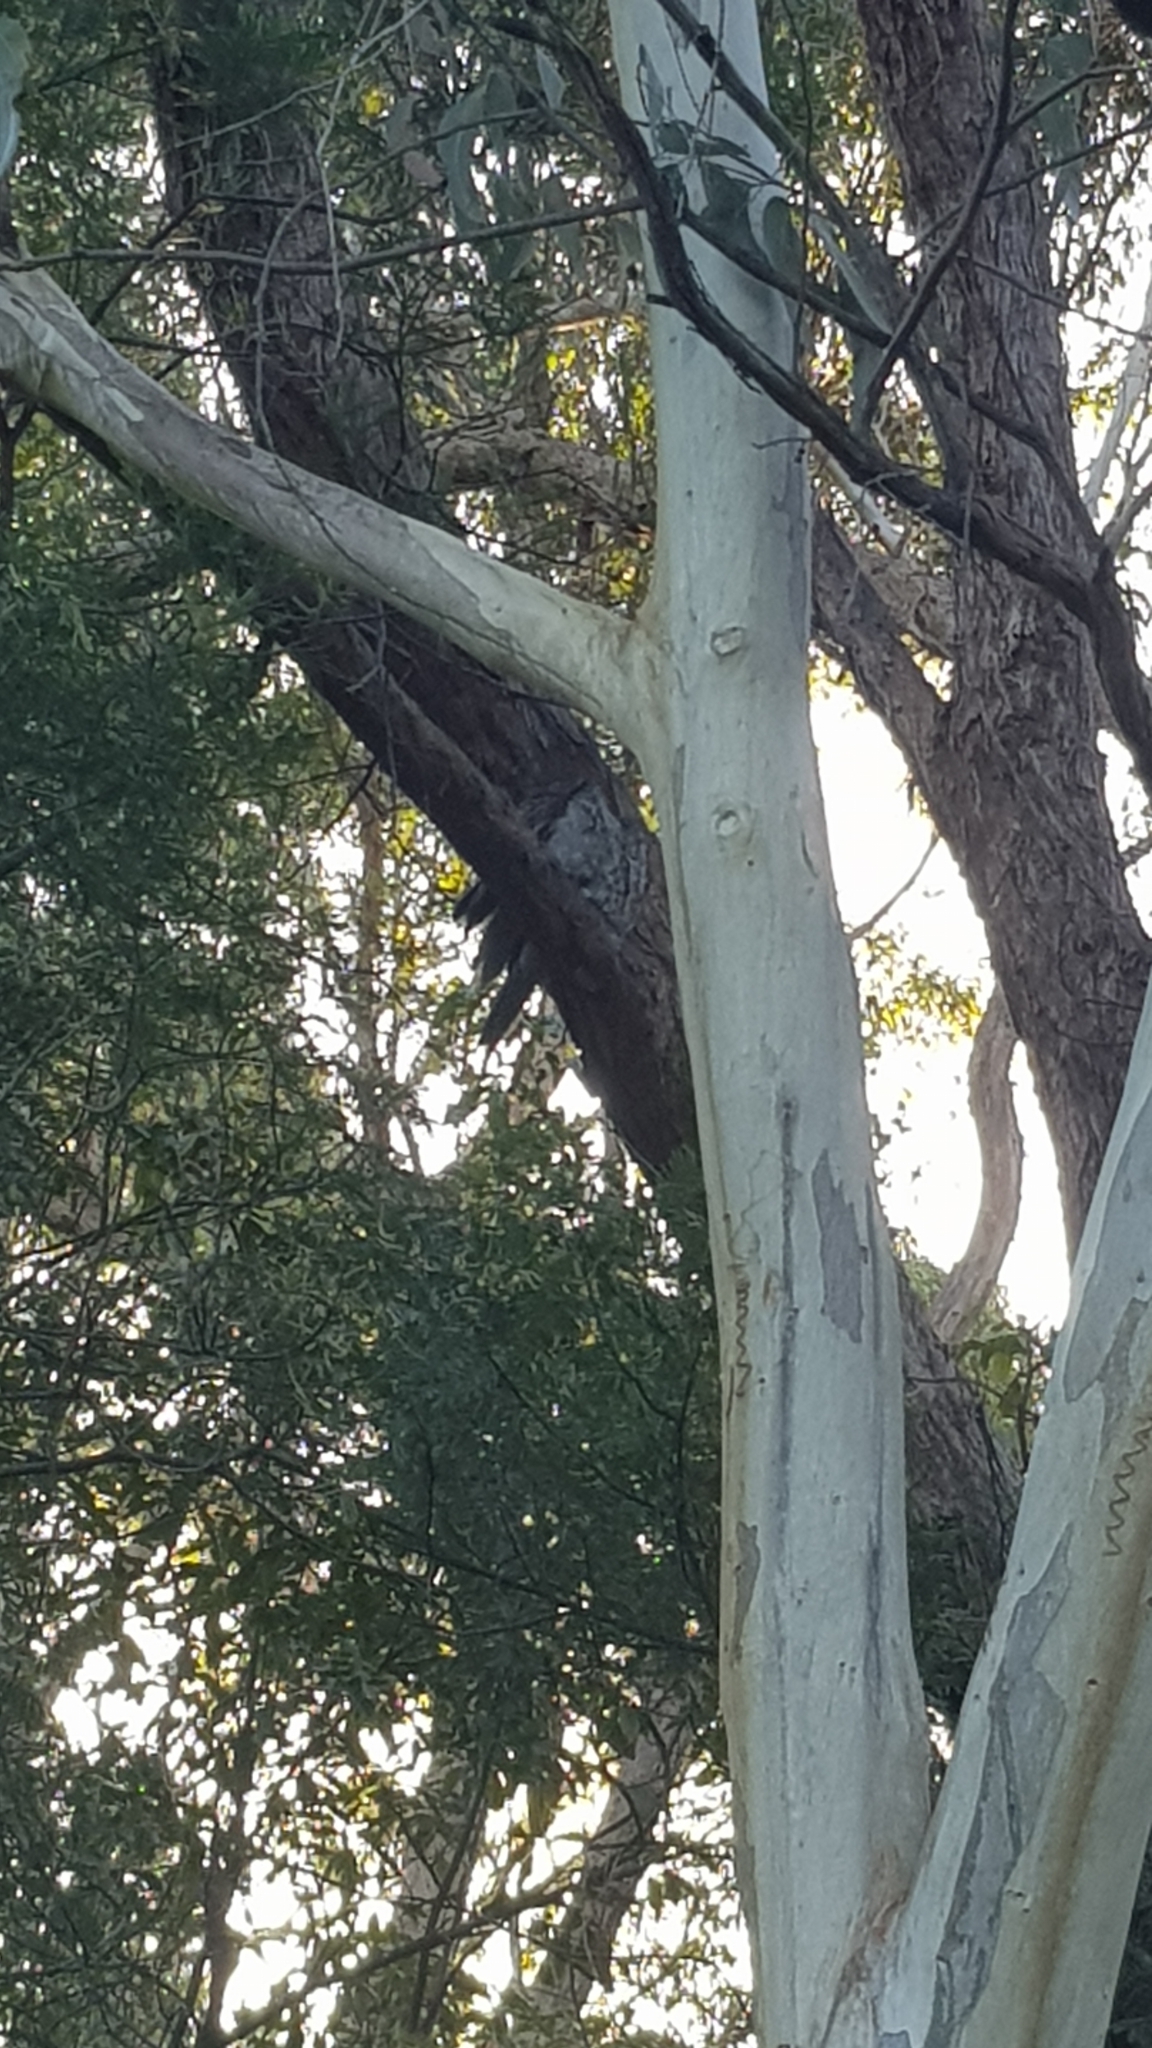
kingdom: Animalia
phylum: Chordata
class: Aves
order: Caprimulgiformes
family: Podargidae
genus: Podargus
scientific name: Podargus strigoides
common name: Tawny frogmouth
